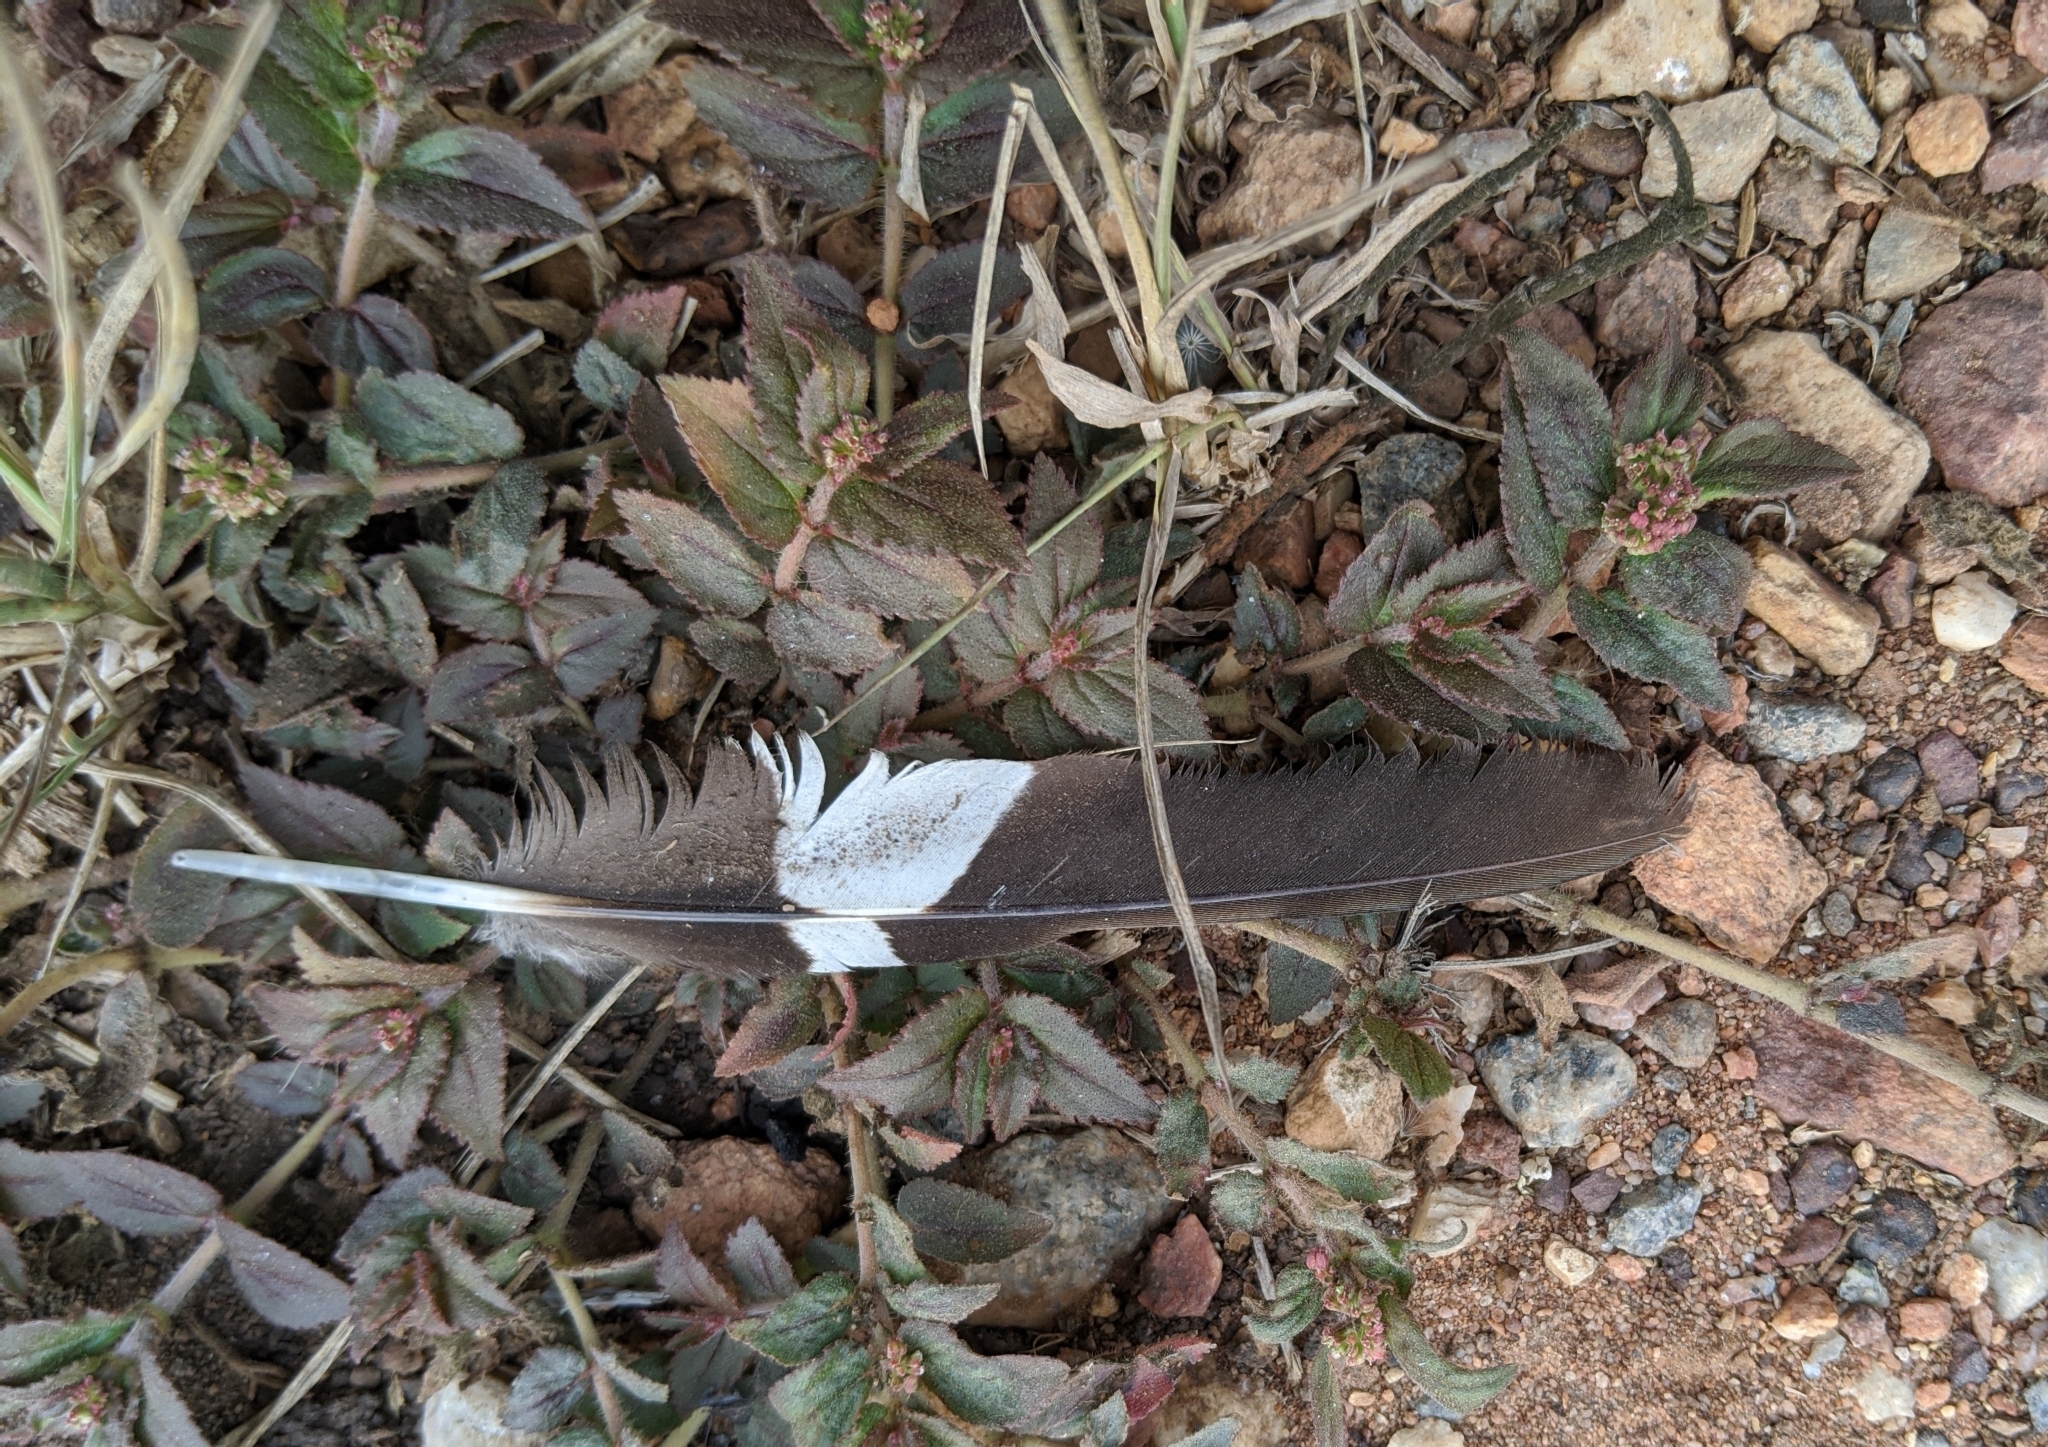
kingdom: Animalia
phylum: Chordata
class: Aves
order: Caprimulgiformes
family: Caprimulgidae
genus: Caprimulgus
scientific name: Caprimulgus climacurus
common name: Long-tailed nightjar
